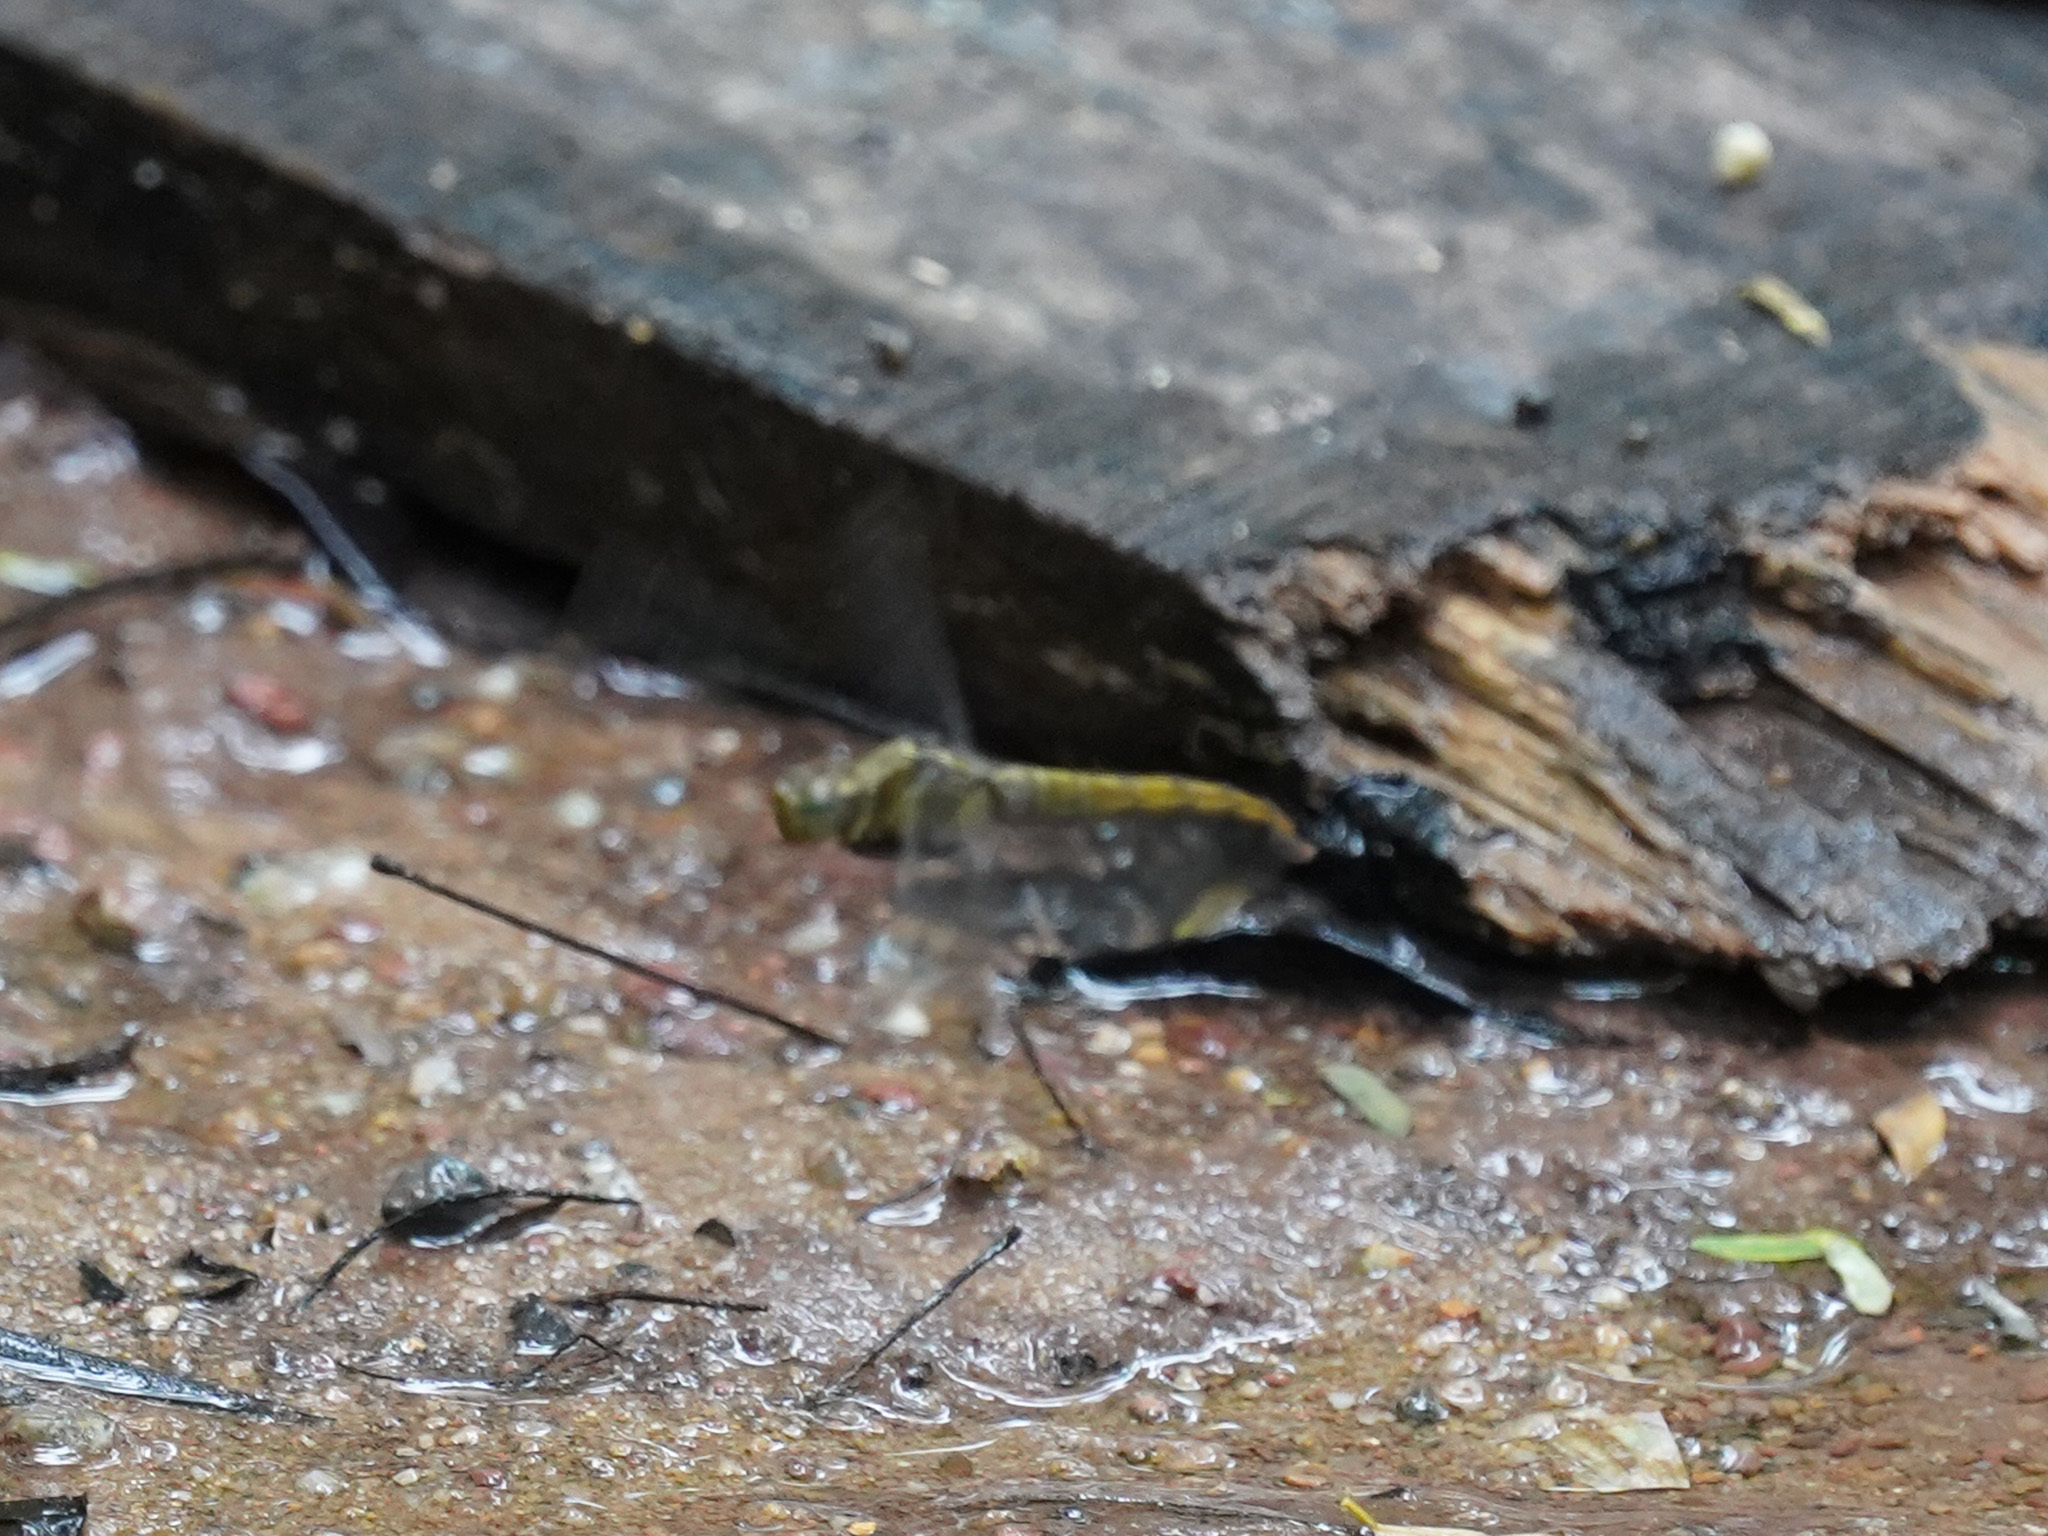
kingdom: Animalia
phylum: Arthropoda
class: Insecta
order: Odonata
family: Libellulidae
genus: Orthetrum
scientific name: Orthetrum testaceum
